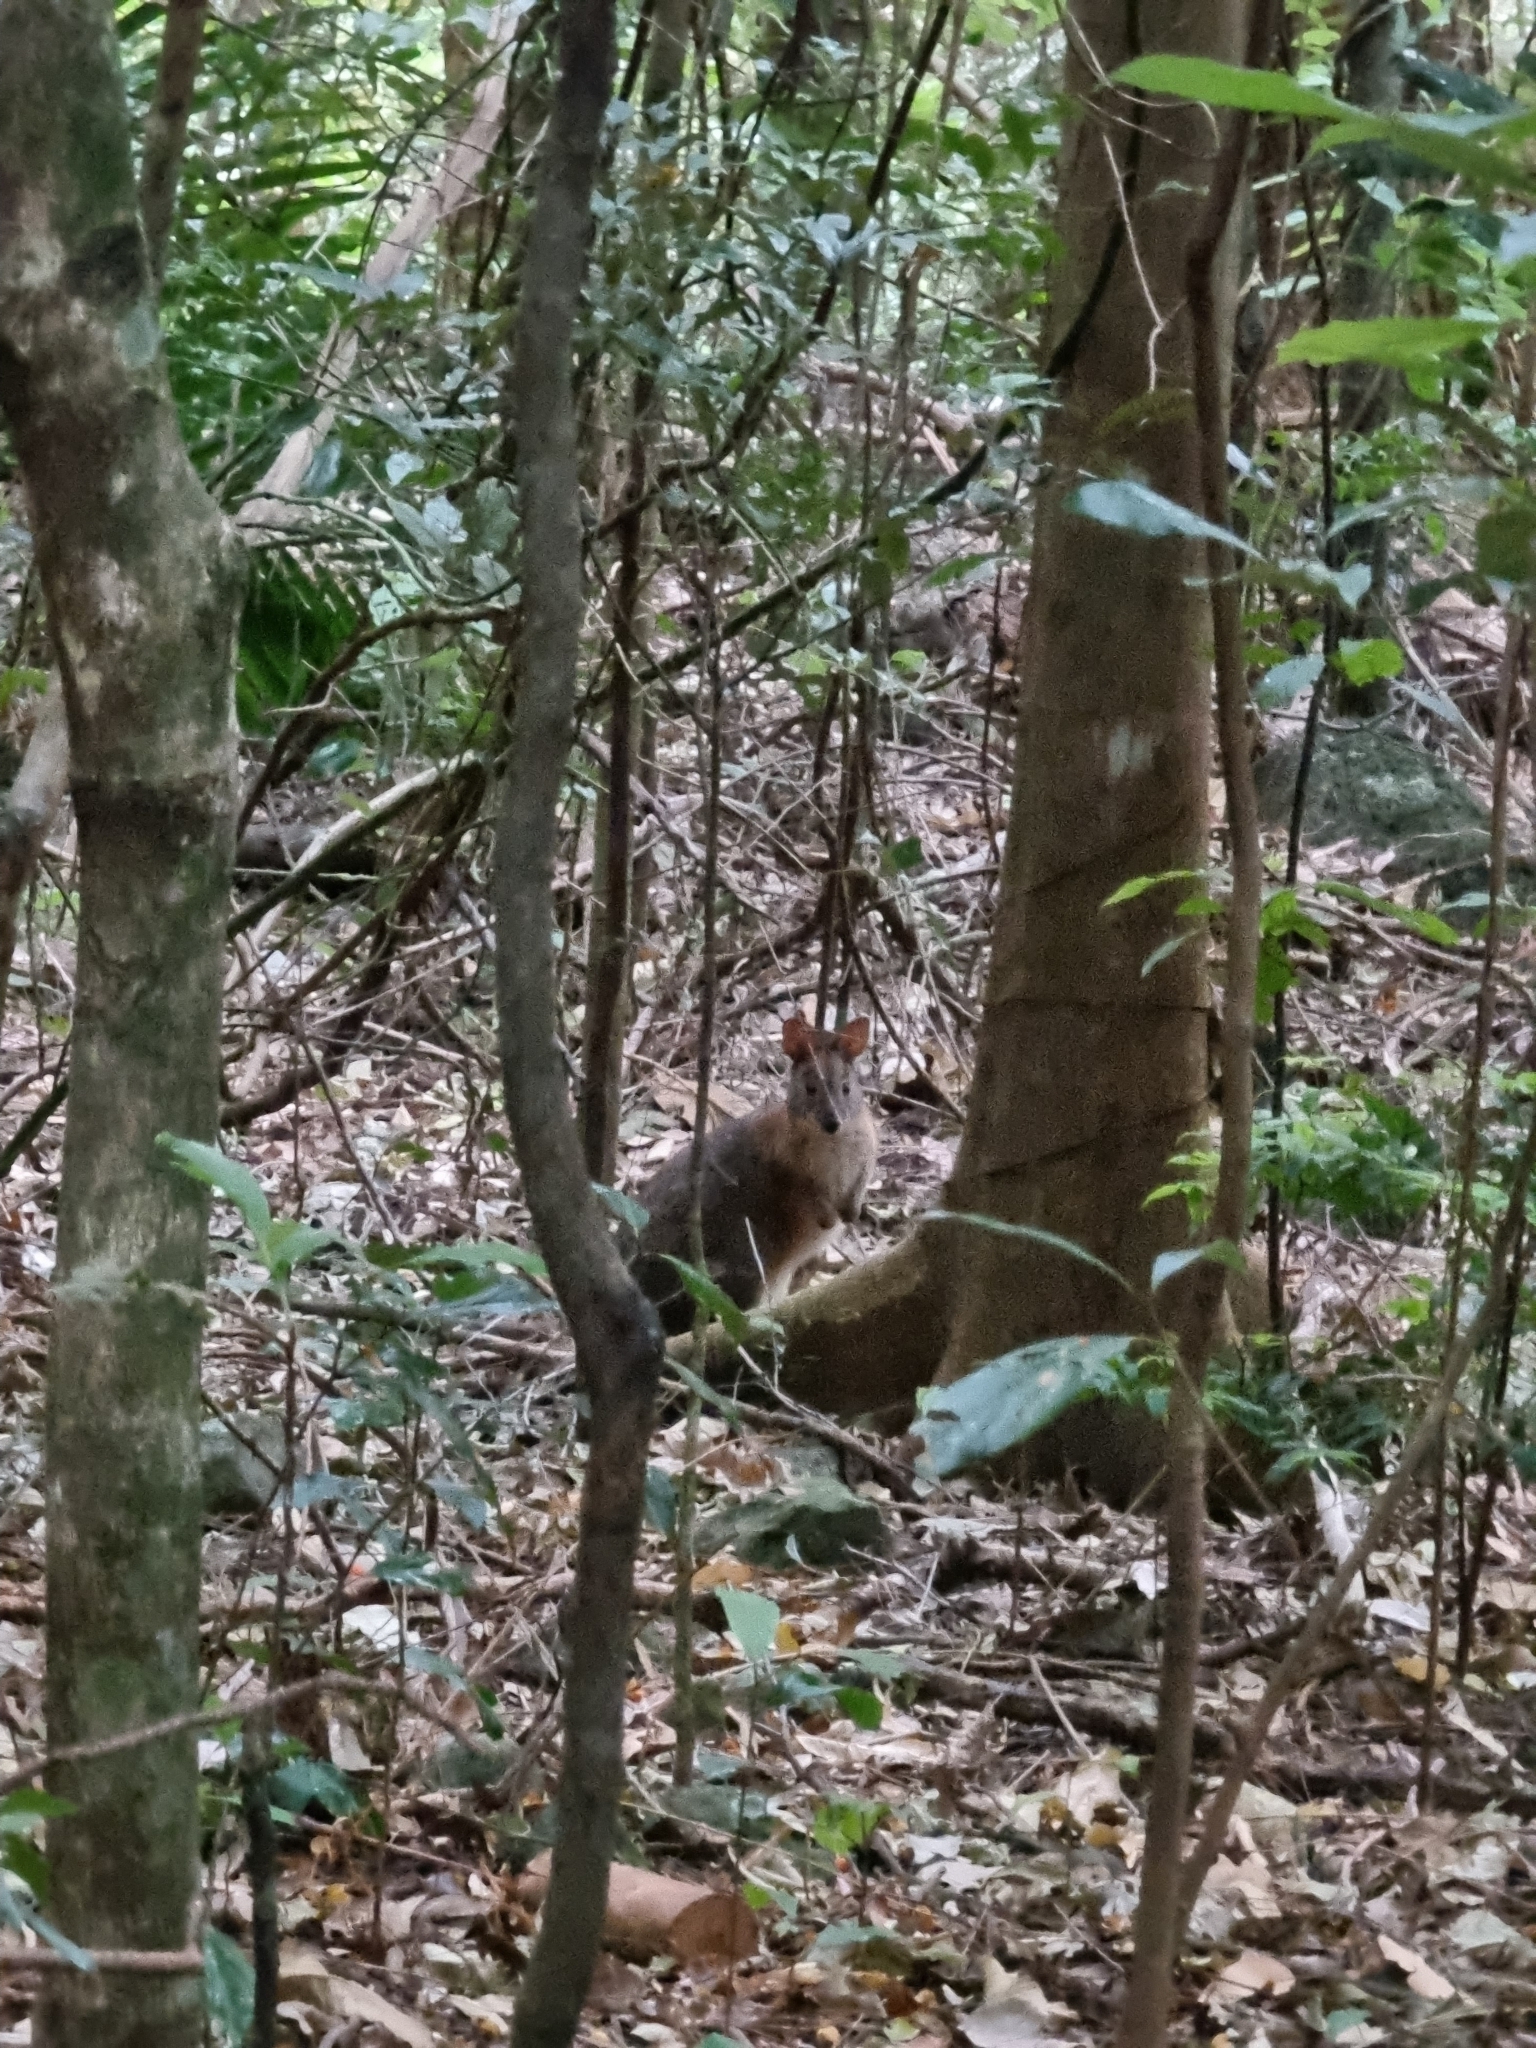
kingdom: Animalia
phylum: Chordata
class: Mammalia
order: Diprotodontia
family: Macropodidae
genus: Thylogale
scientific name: Thylogale thetis
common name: Red-necked pademelon
